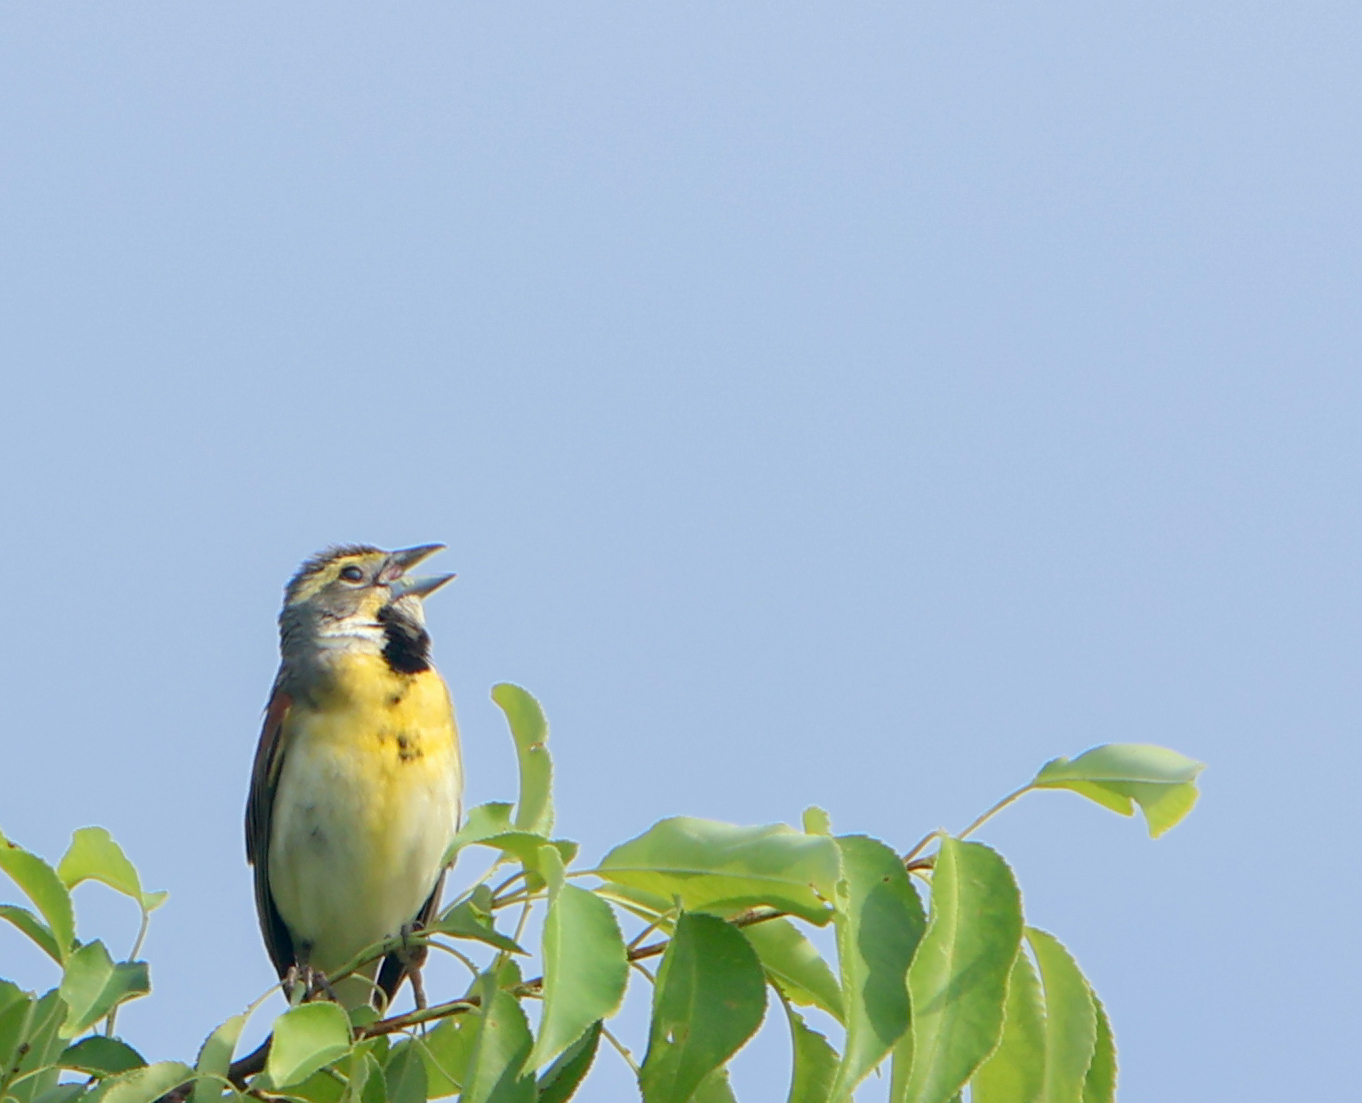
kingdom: Animalia
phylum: Chordata
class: Aves
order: Passeriformes
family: Cardinalidae
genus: Spiza
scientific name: Spiza americana
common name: Dickcissel
